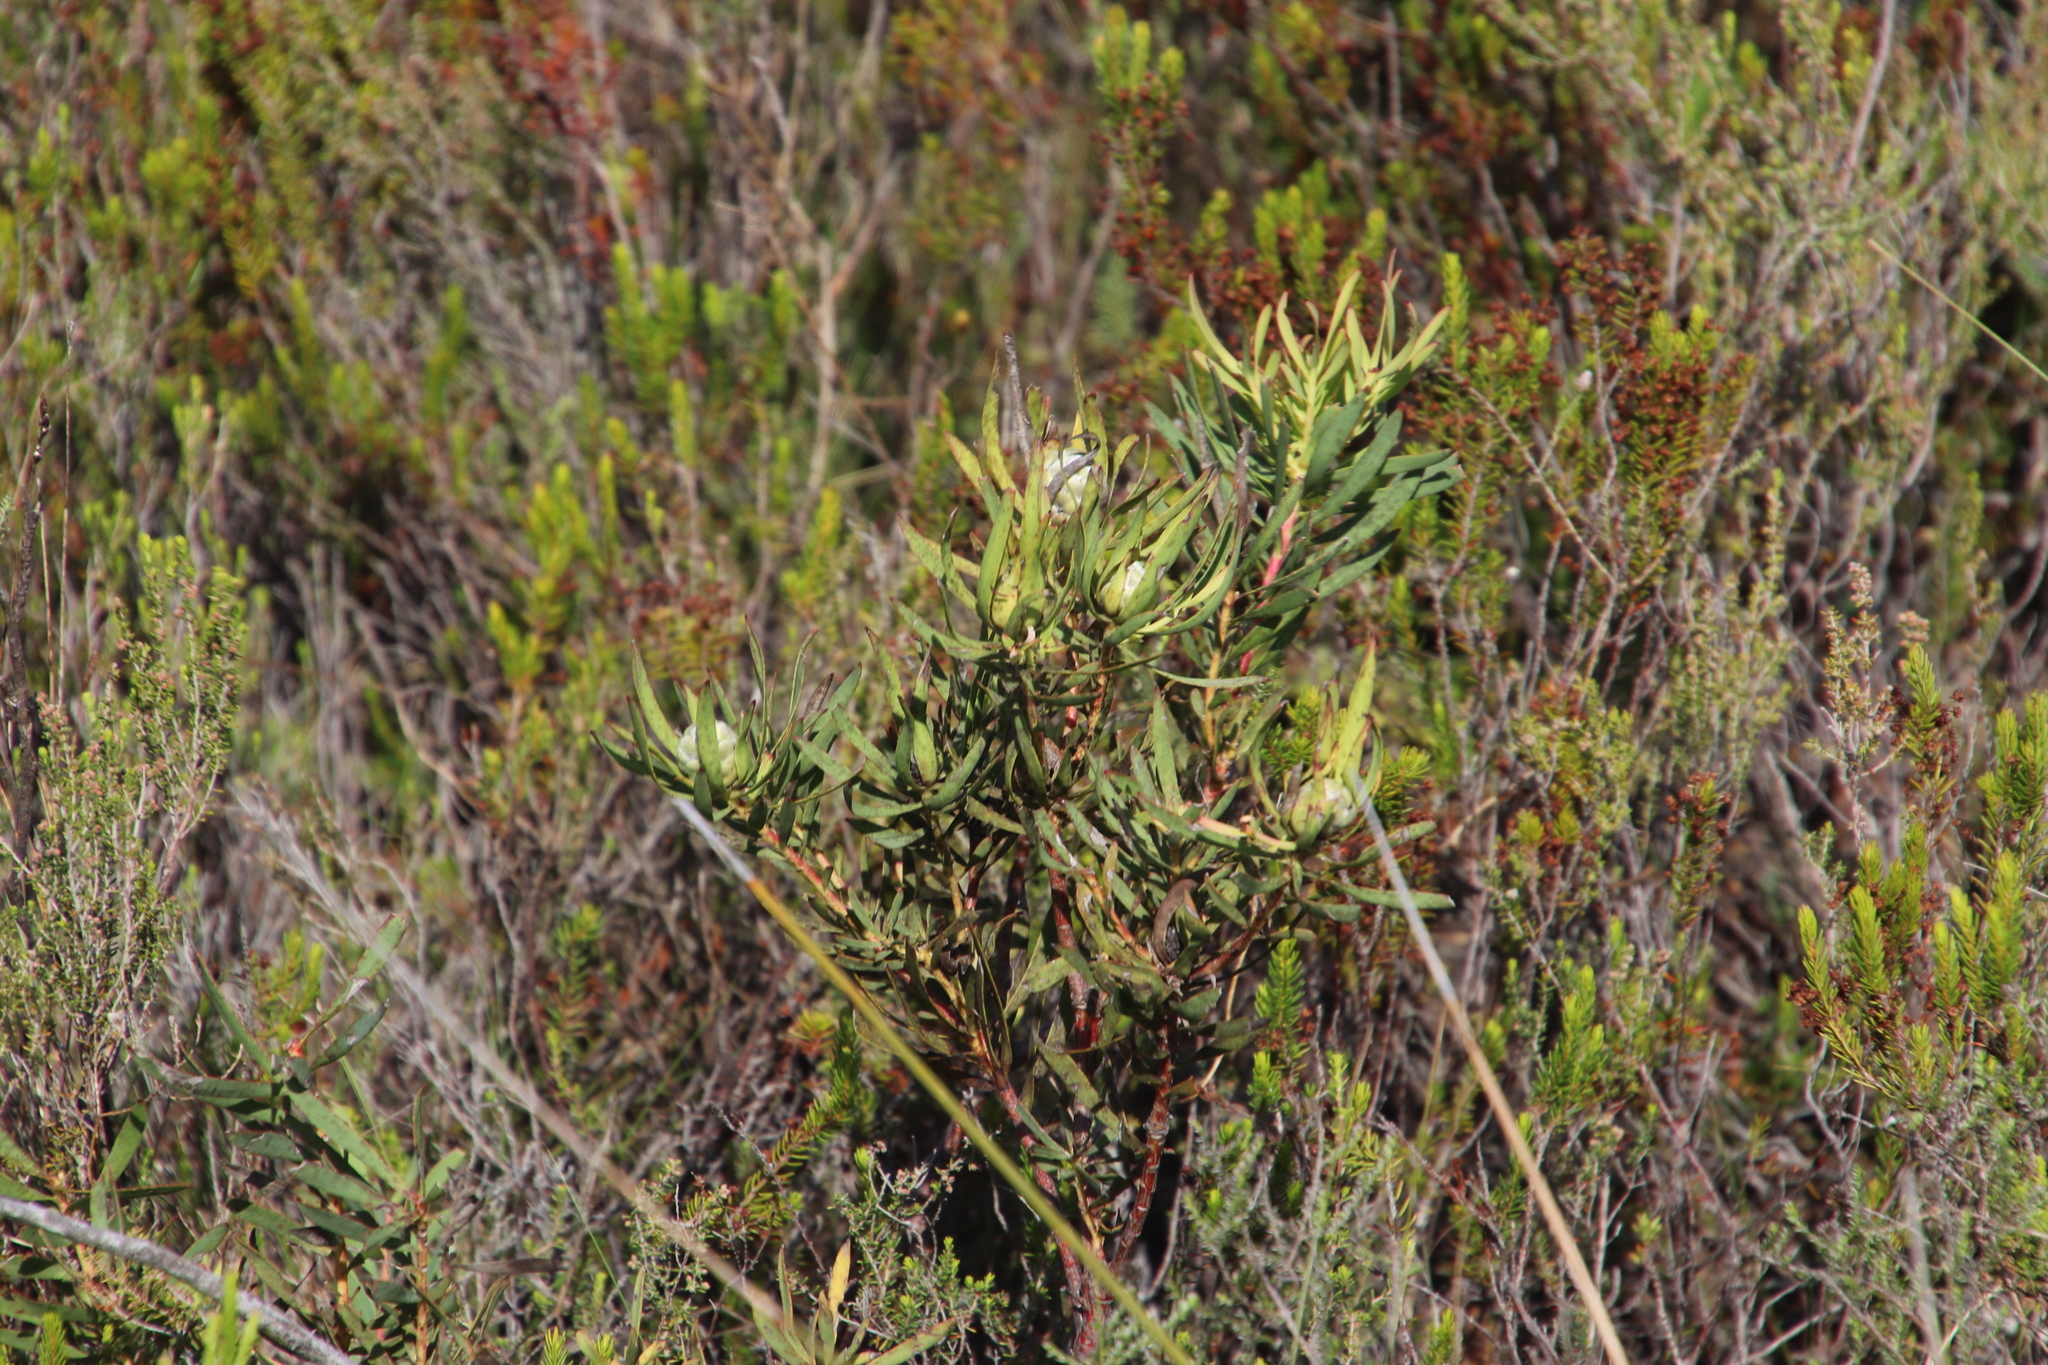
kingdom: Plantae
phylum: Tracheophyta
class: Magnoliopsida
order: Proteales
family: Proteaceae
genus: Leucadendron
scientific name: Leucadendron salignum
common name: Common sunshine conebush
